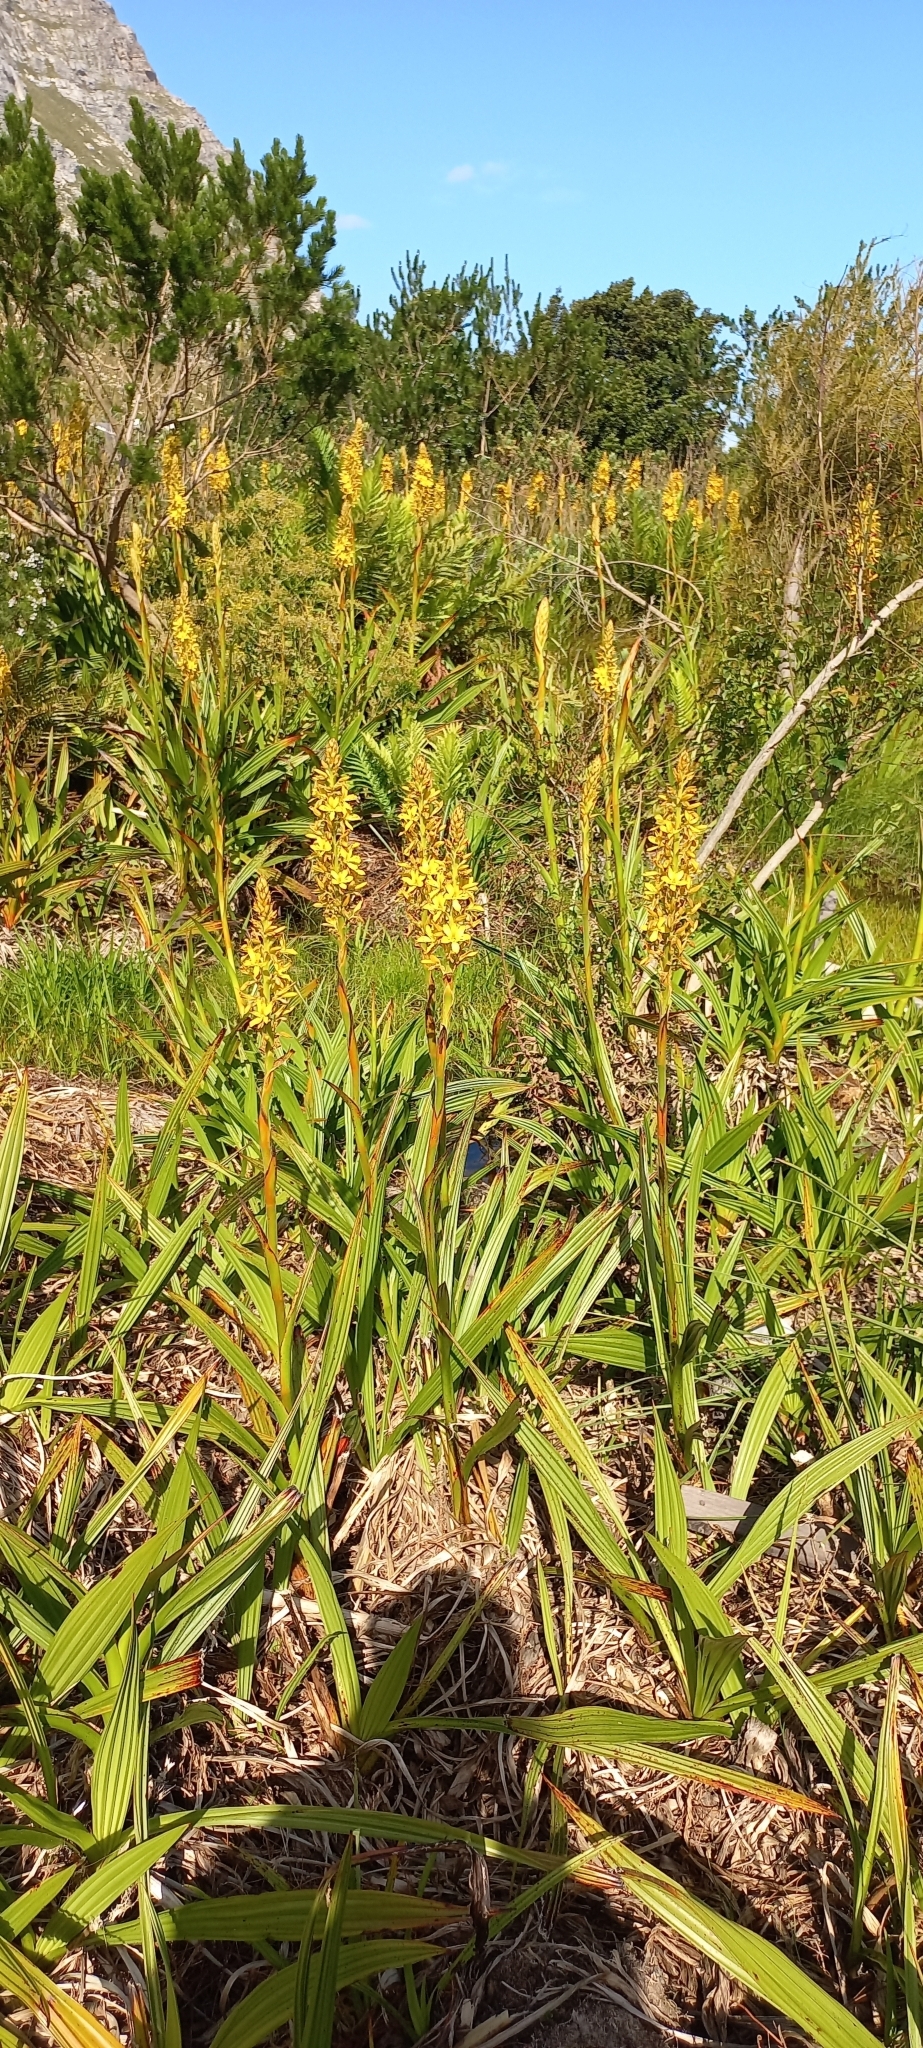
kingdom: Plantae
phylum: Tracheophyta
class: Liliopsida
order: Commelinales
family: Haemodoraceae
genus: Wachendorfia
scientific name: Wachendorfia thyrsiflora
